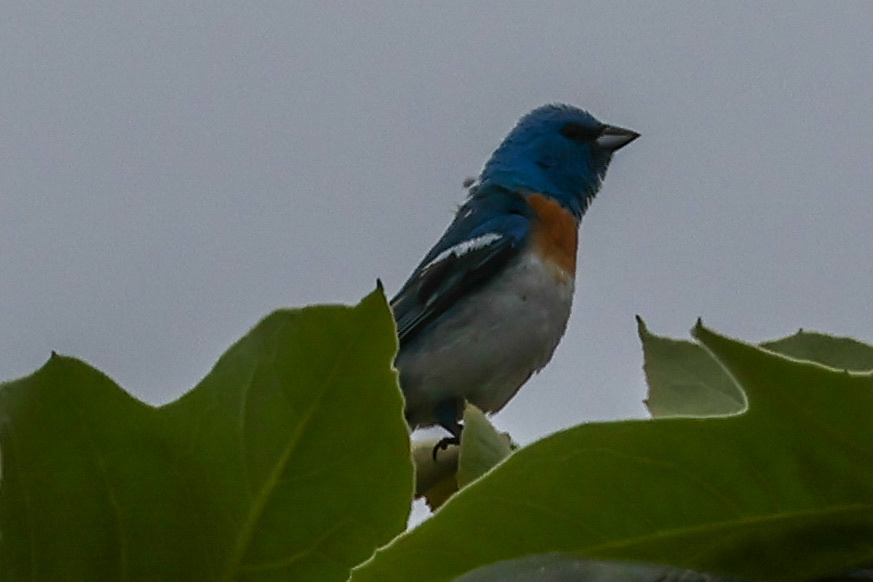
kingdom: Animalia
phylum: Chordata
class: Aves
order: Passeriformes
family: Cardinalidae
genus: Passerina
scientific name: Passerina amoena
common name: Lazuli bunting
